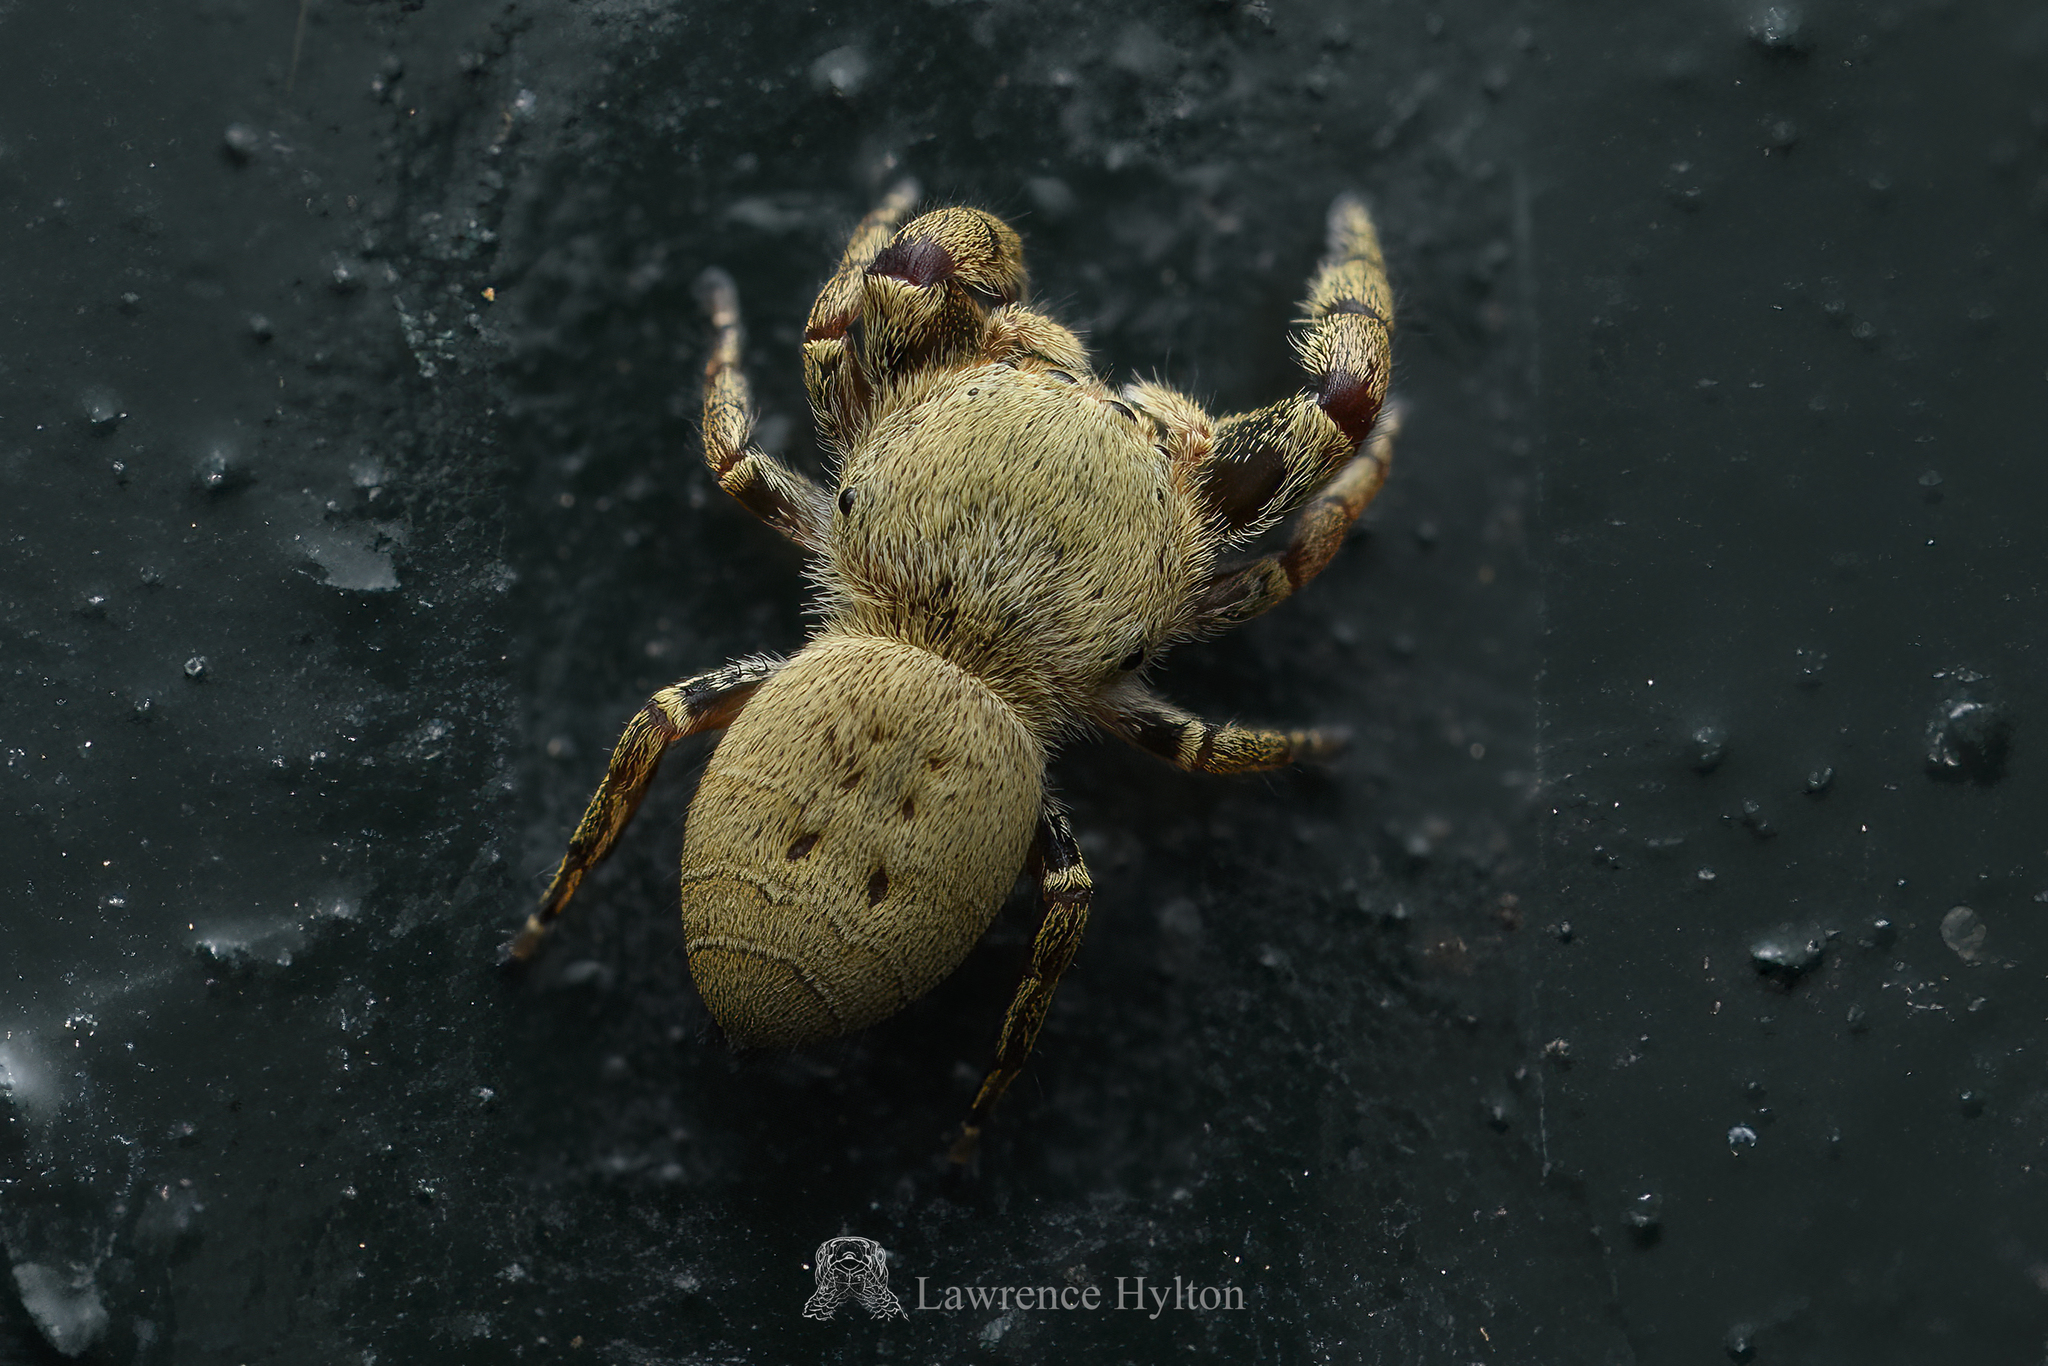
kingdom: Animalia
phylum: Arthropoda
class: Arachnida
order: Araneae
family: Salticidae
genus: Rhene
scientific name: Rhene flavicomans
